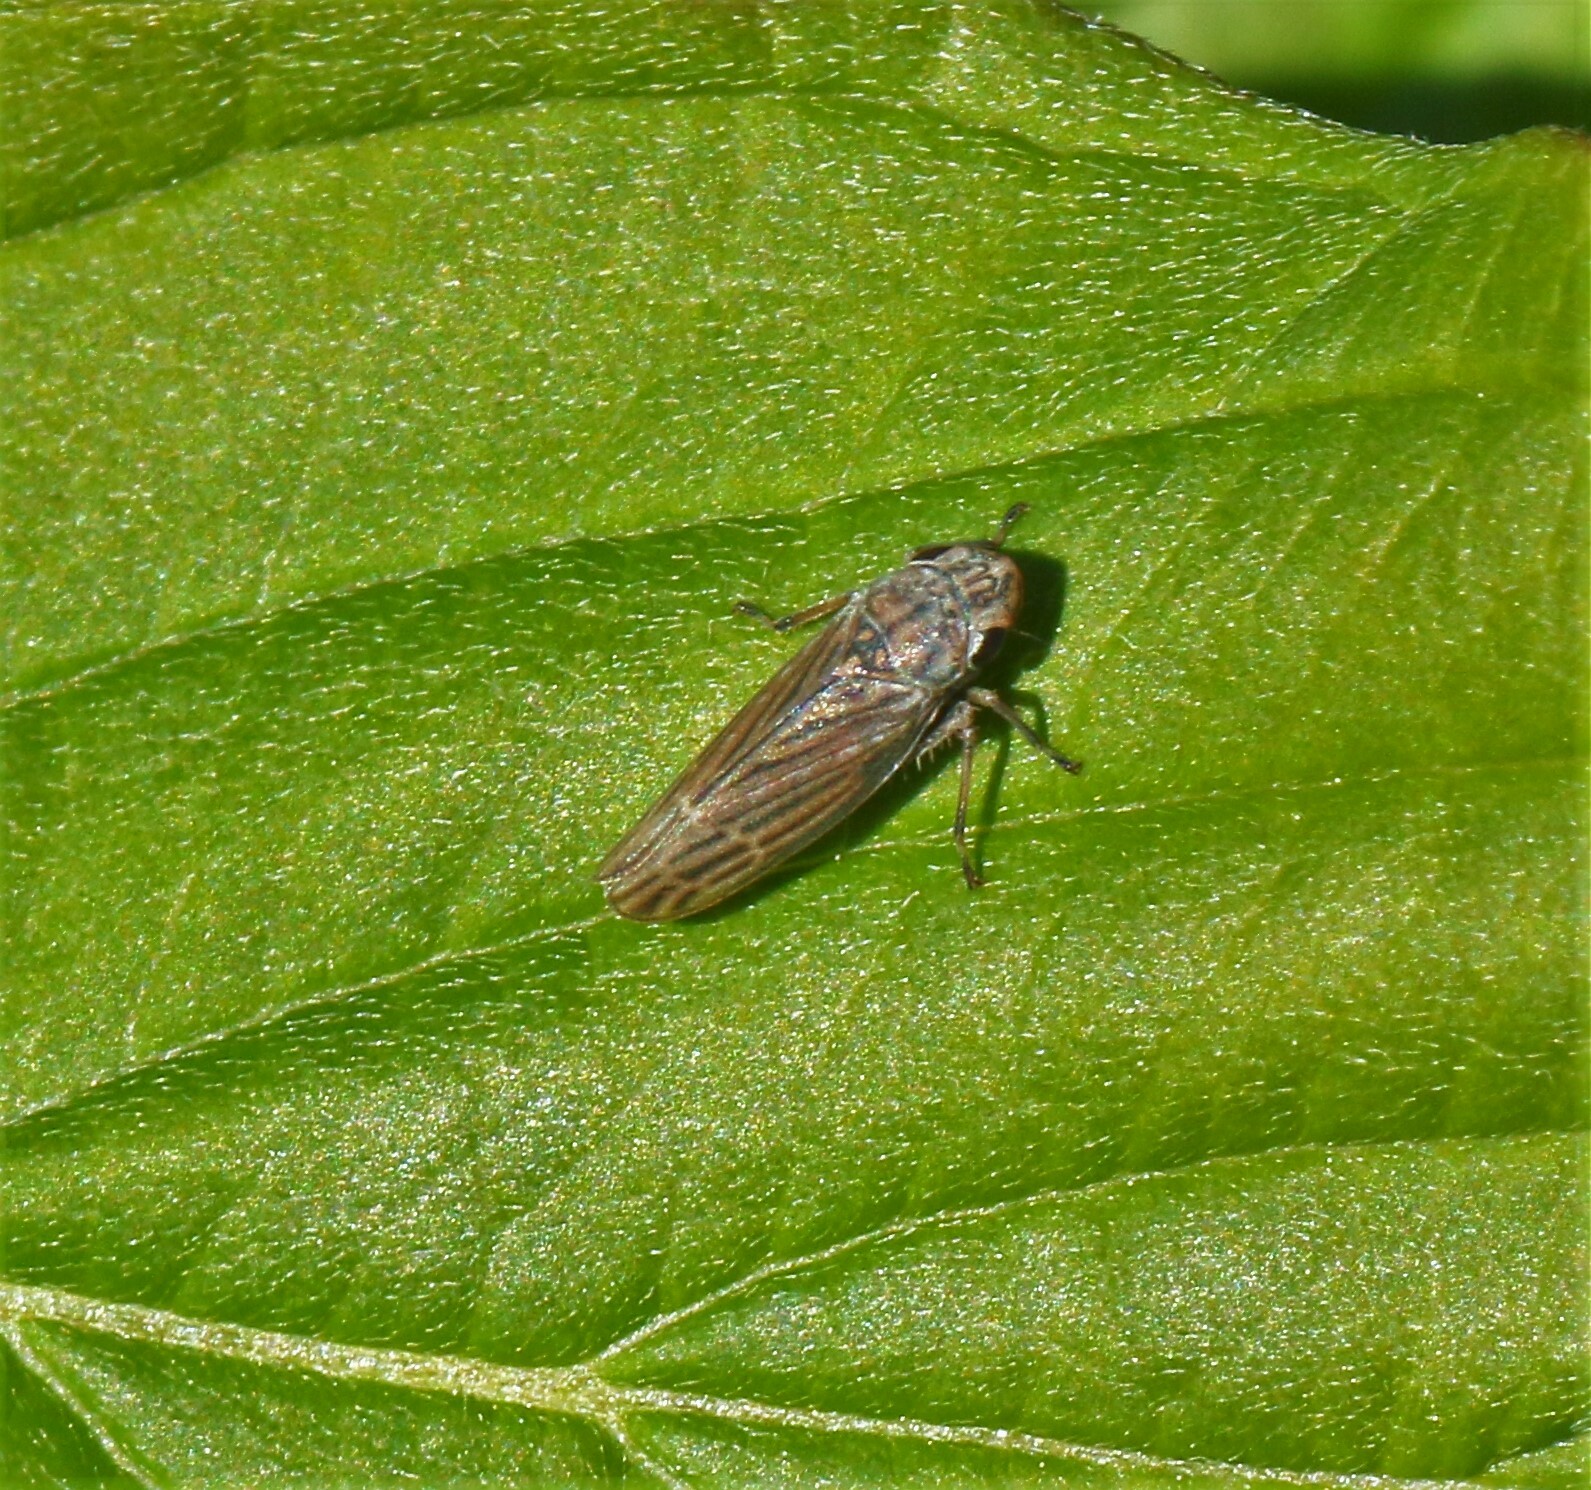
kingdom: Animalia
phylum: Arthropoda
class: Insecta
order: Hemiptera
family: Cicadellidae
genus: Neokolla
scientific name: Neokolla hieroglyphica
